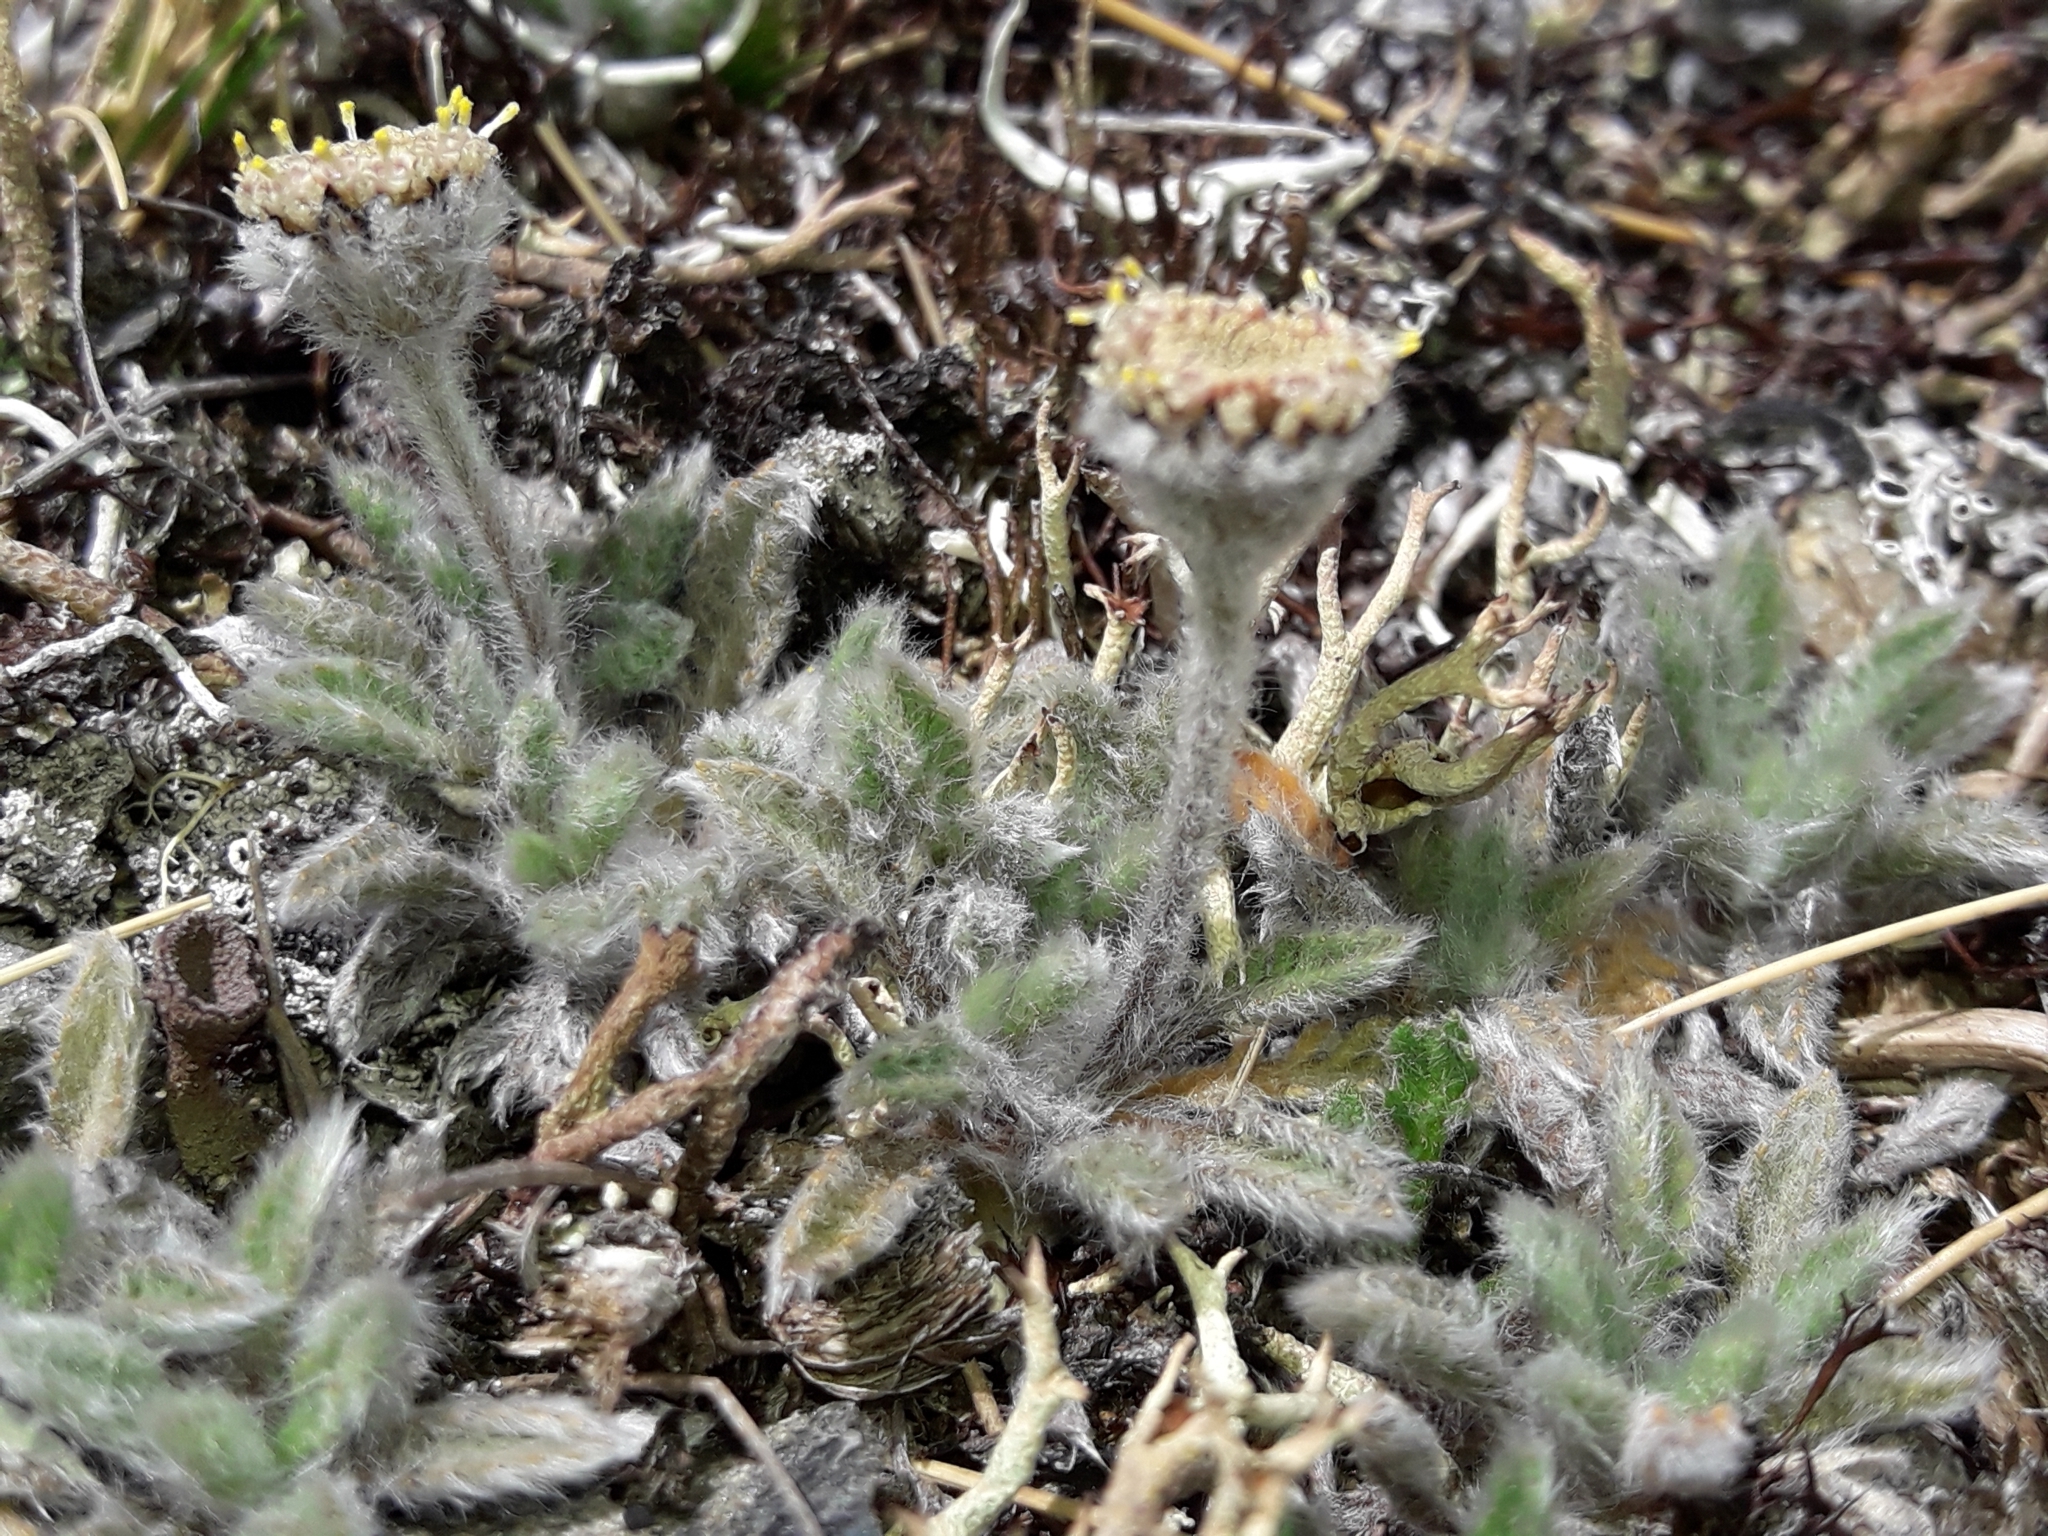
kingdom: Plantae
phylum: Tracheophyta
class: Magnoliopsida
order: Asterales
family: Asteraceae
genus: Leptinella
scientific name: Leptinella albida
